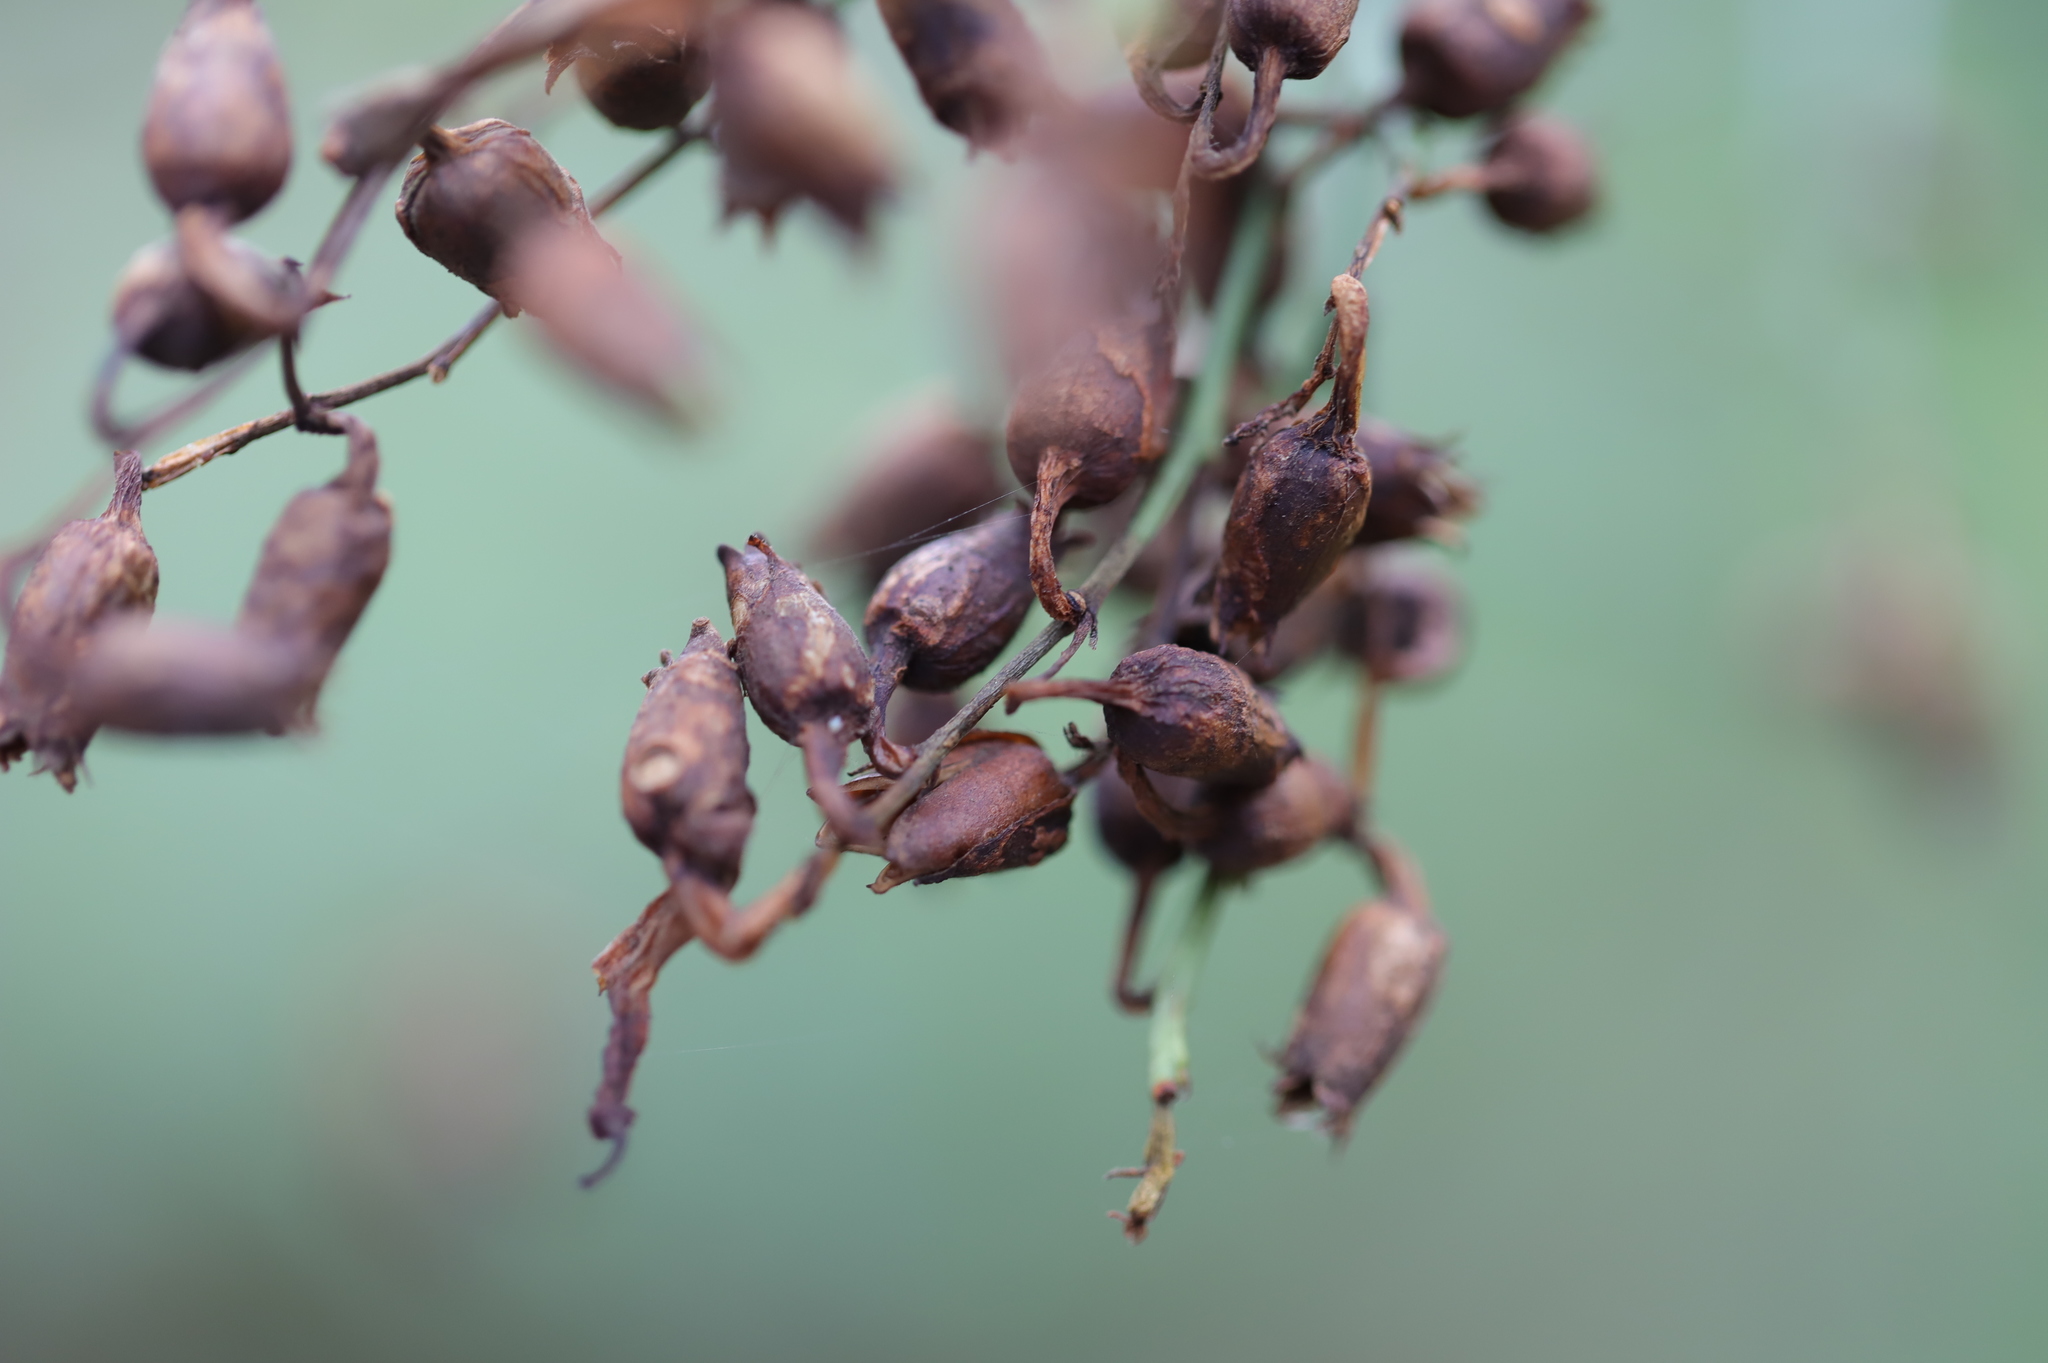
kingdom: Plantae
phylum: Tracheophyta
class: Magnoliopsida
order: Solanales
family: Solanaceae
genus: Nicotiana
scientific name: Nicotiana glauca
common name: Tree tobacco
